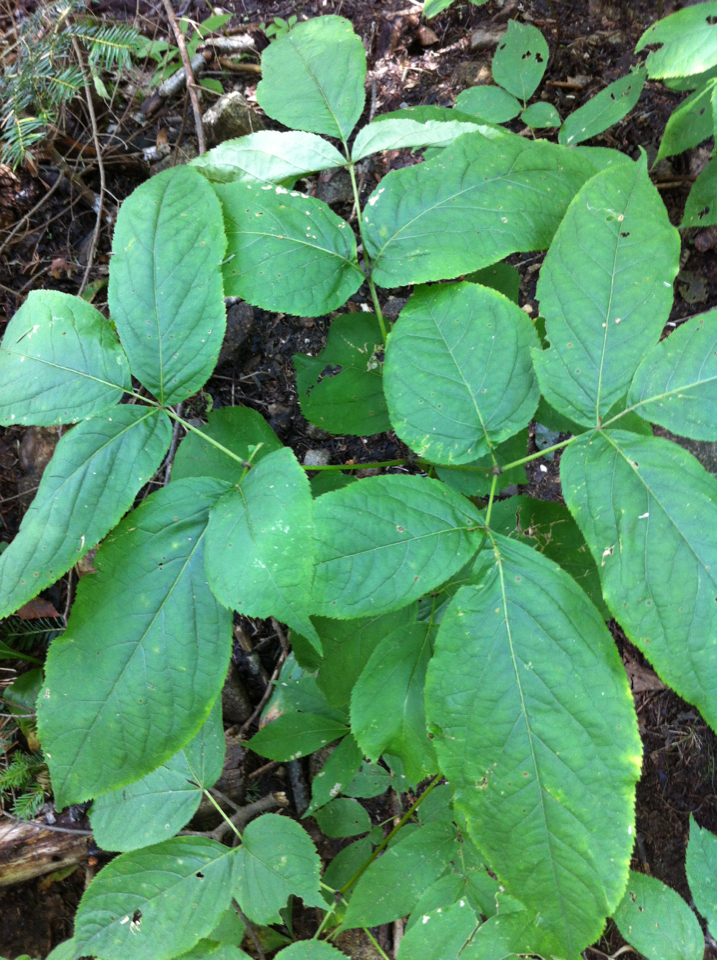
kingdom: Plantae
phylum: Tracheophyta
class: Magnoliopsida
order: Apiales
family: Araliaceae
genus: Aralia
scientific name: Aralia nudicaulis
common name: Wild sarsaparilla
